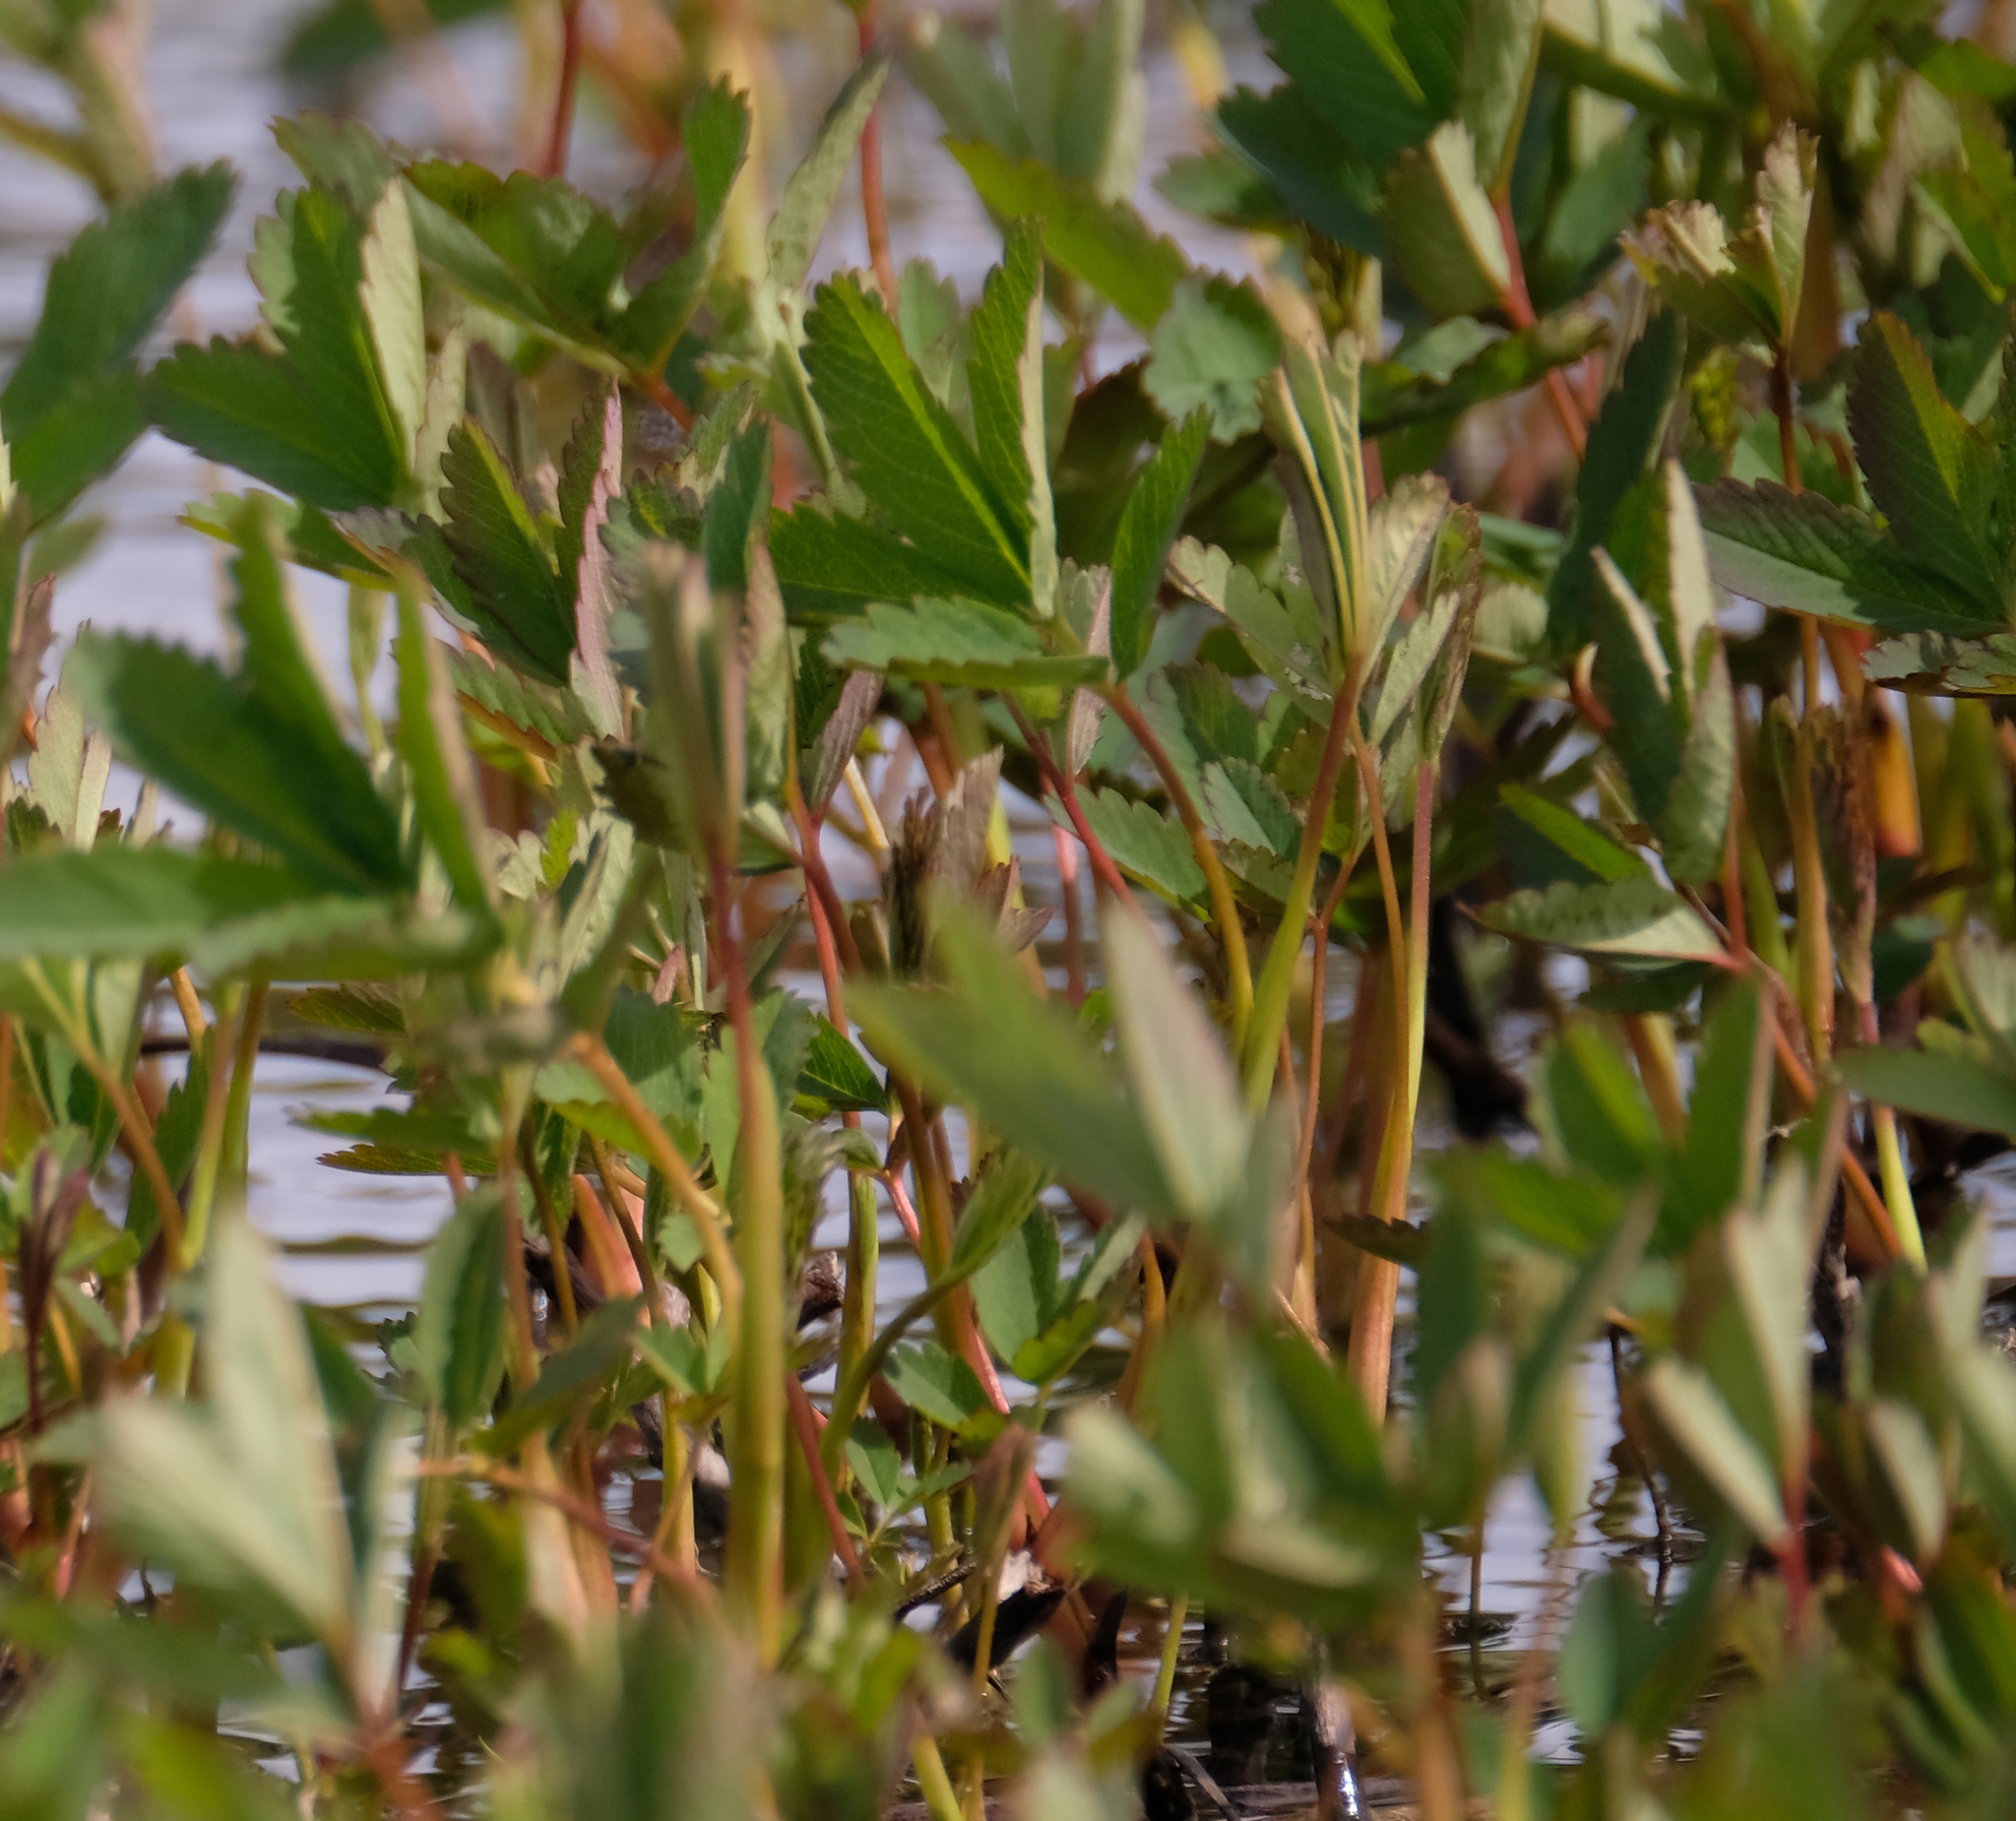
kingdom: Plantae
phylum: Tracheophyta
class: Magnoliopsida
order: Rosales
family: Rosaceae
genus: Comarum
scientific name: Comarum palustre
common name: Marsh cinquefoil
